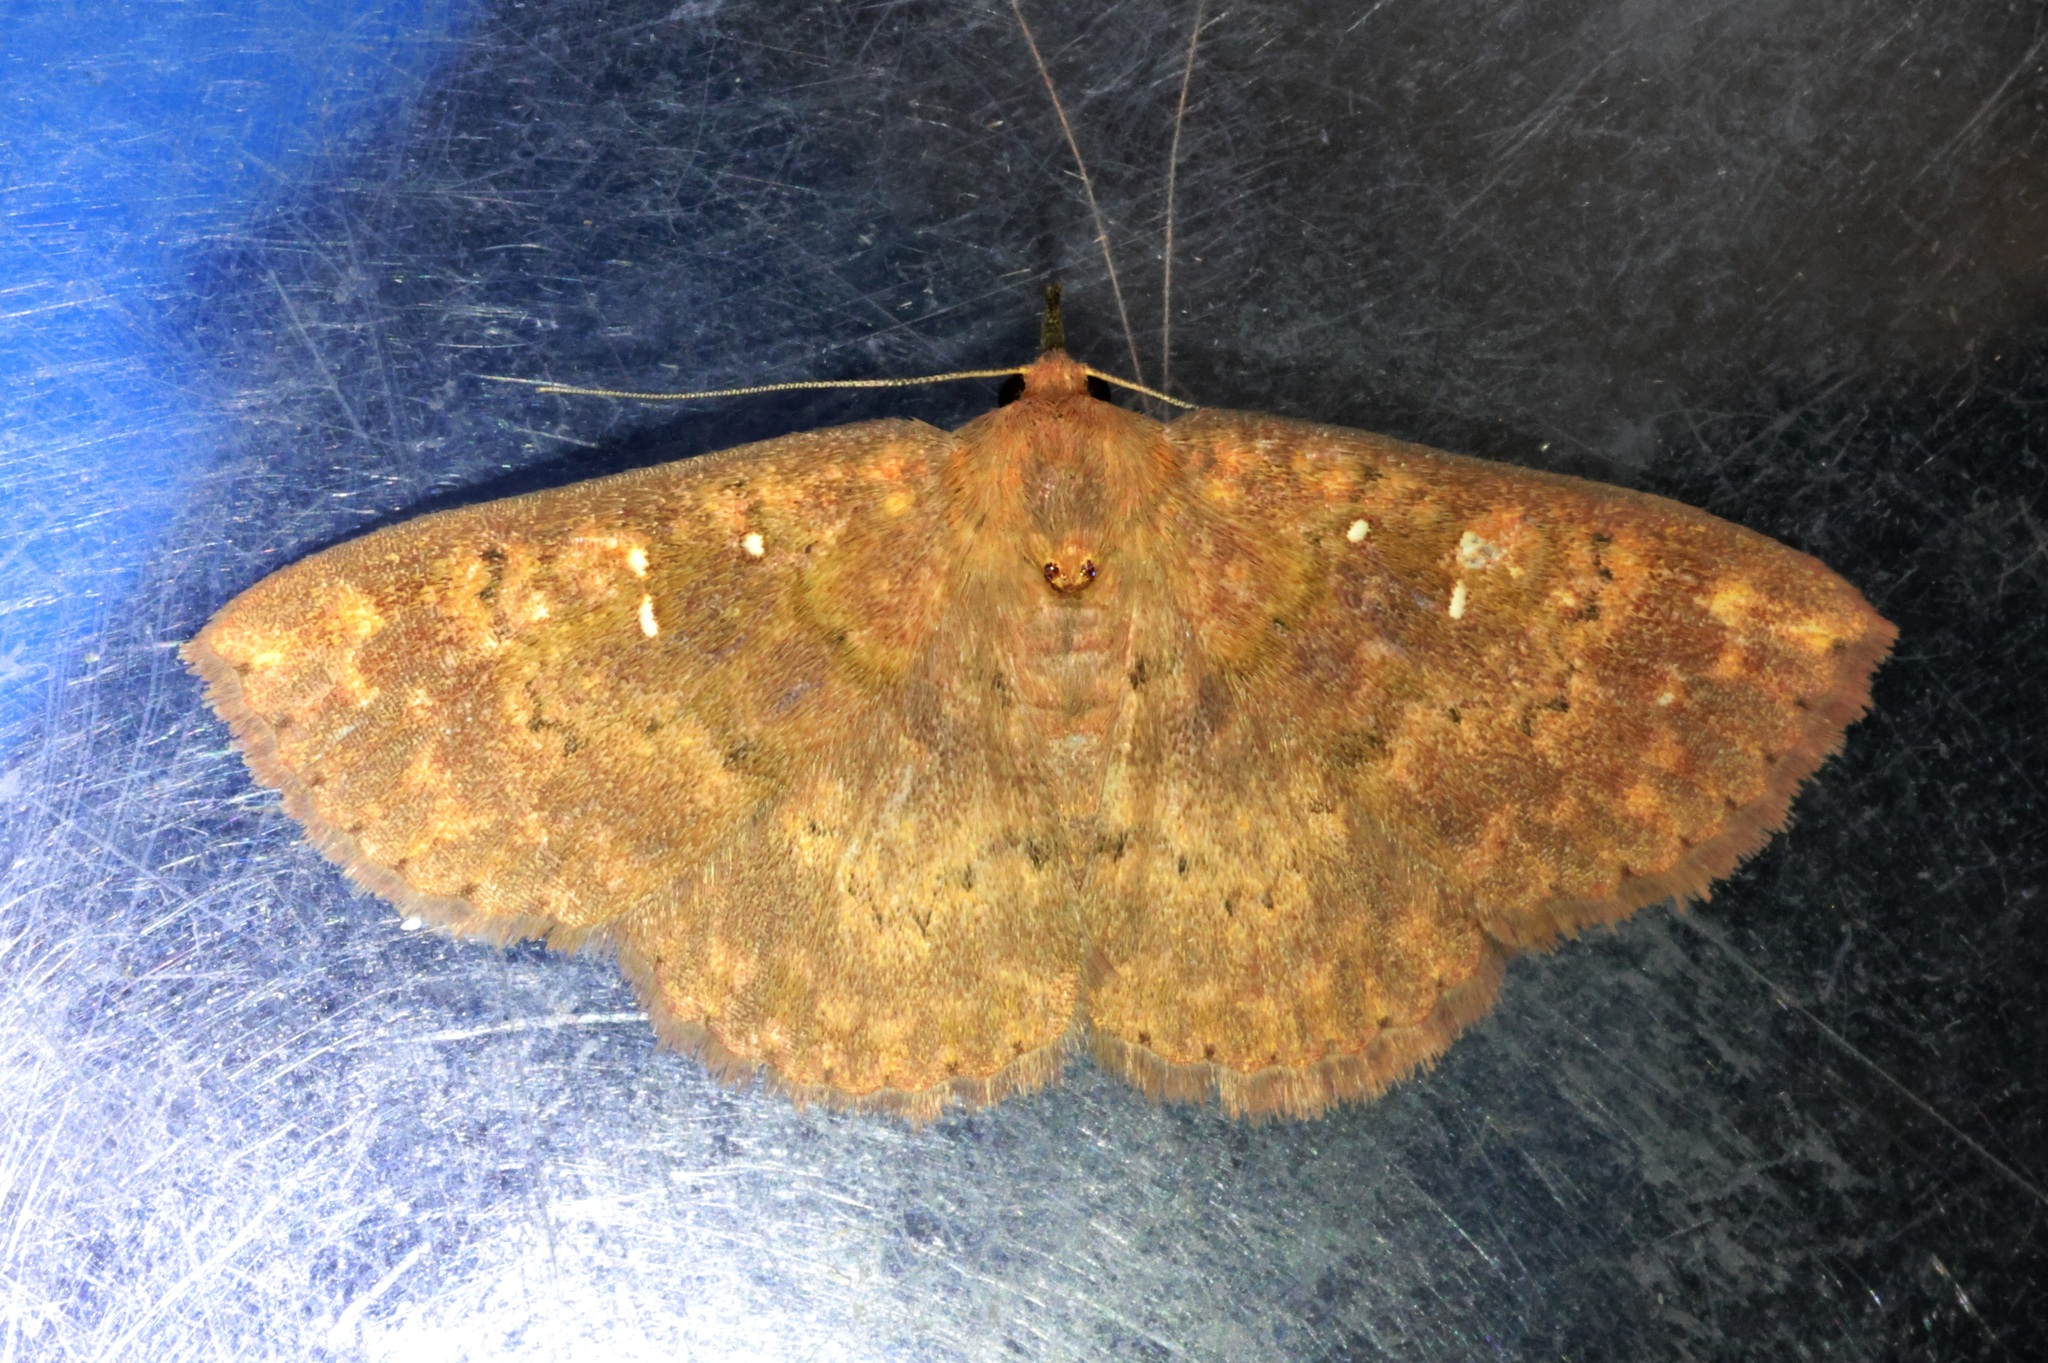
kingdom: Animalia
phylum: Arthropoda
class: Insecta
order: Lepidoptera
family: Erebidae
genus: Sarobides
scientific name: Sarobides inconclusa
